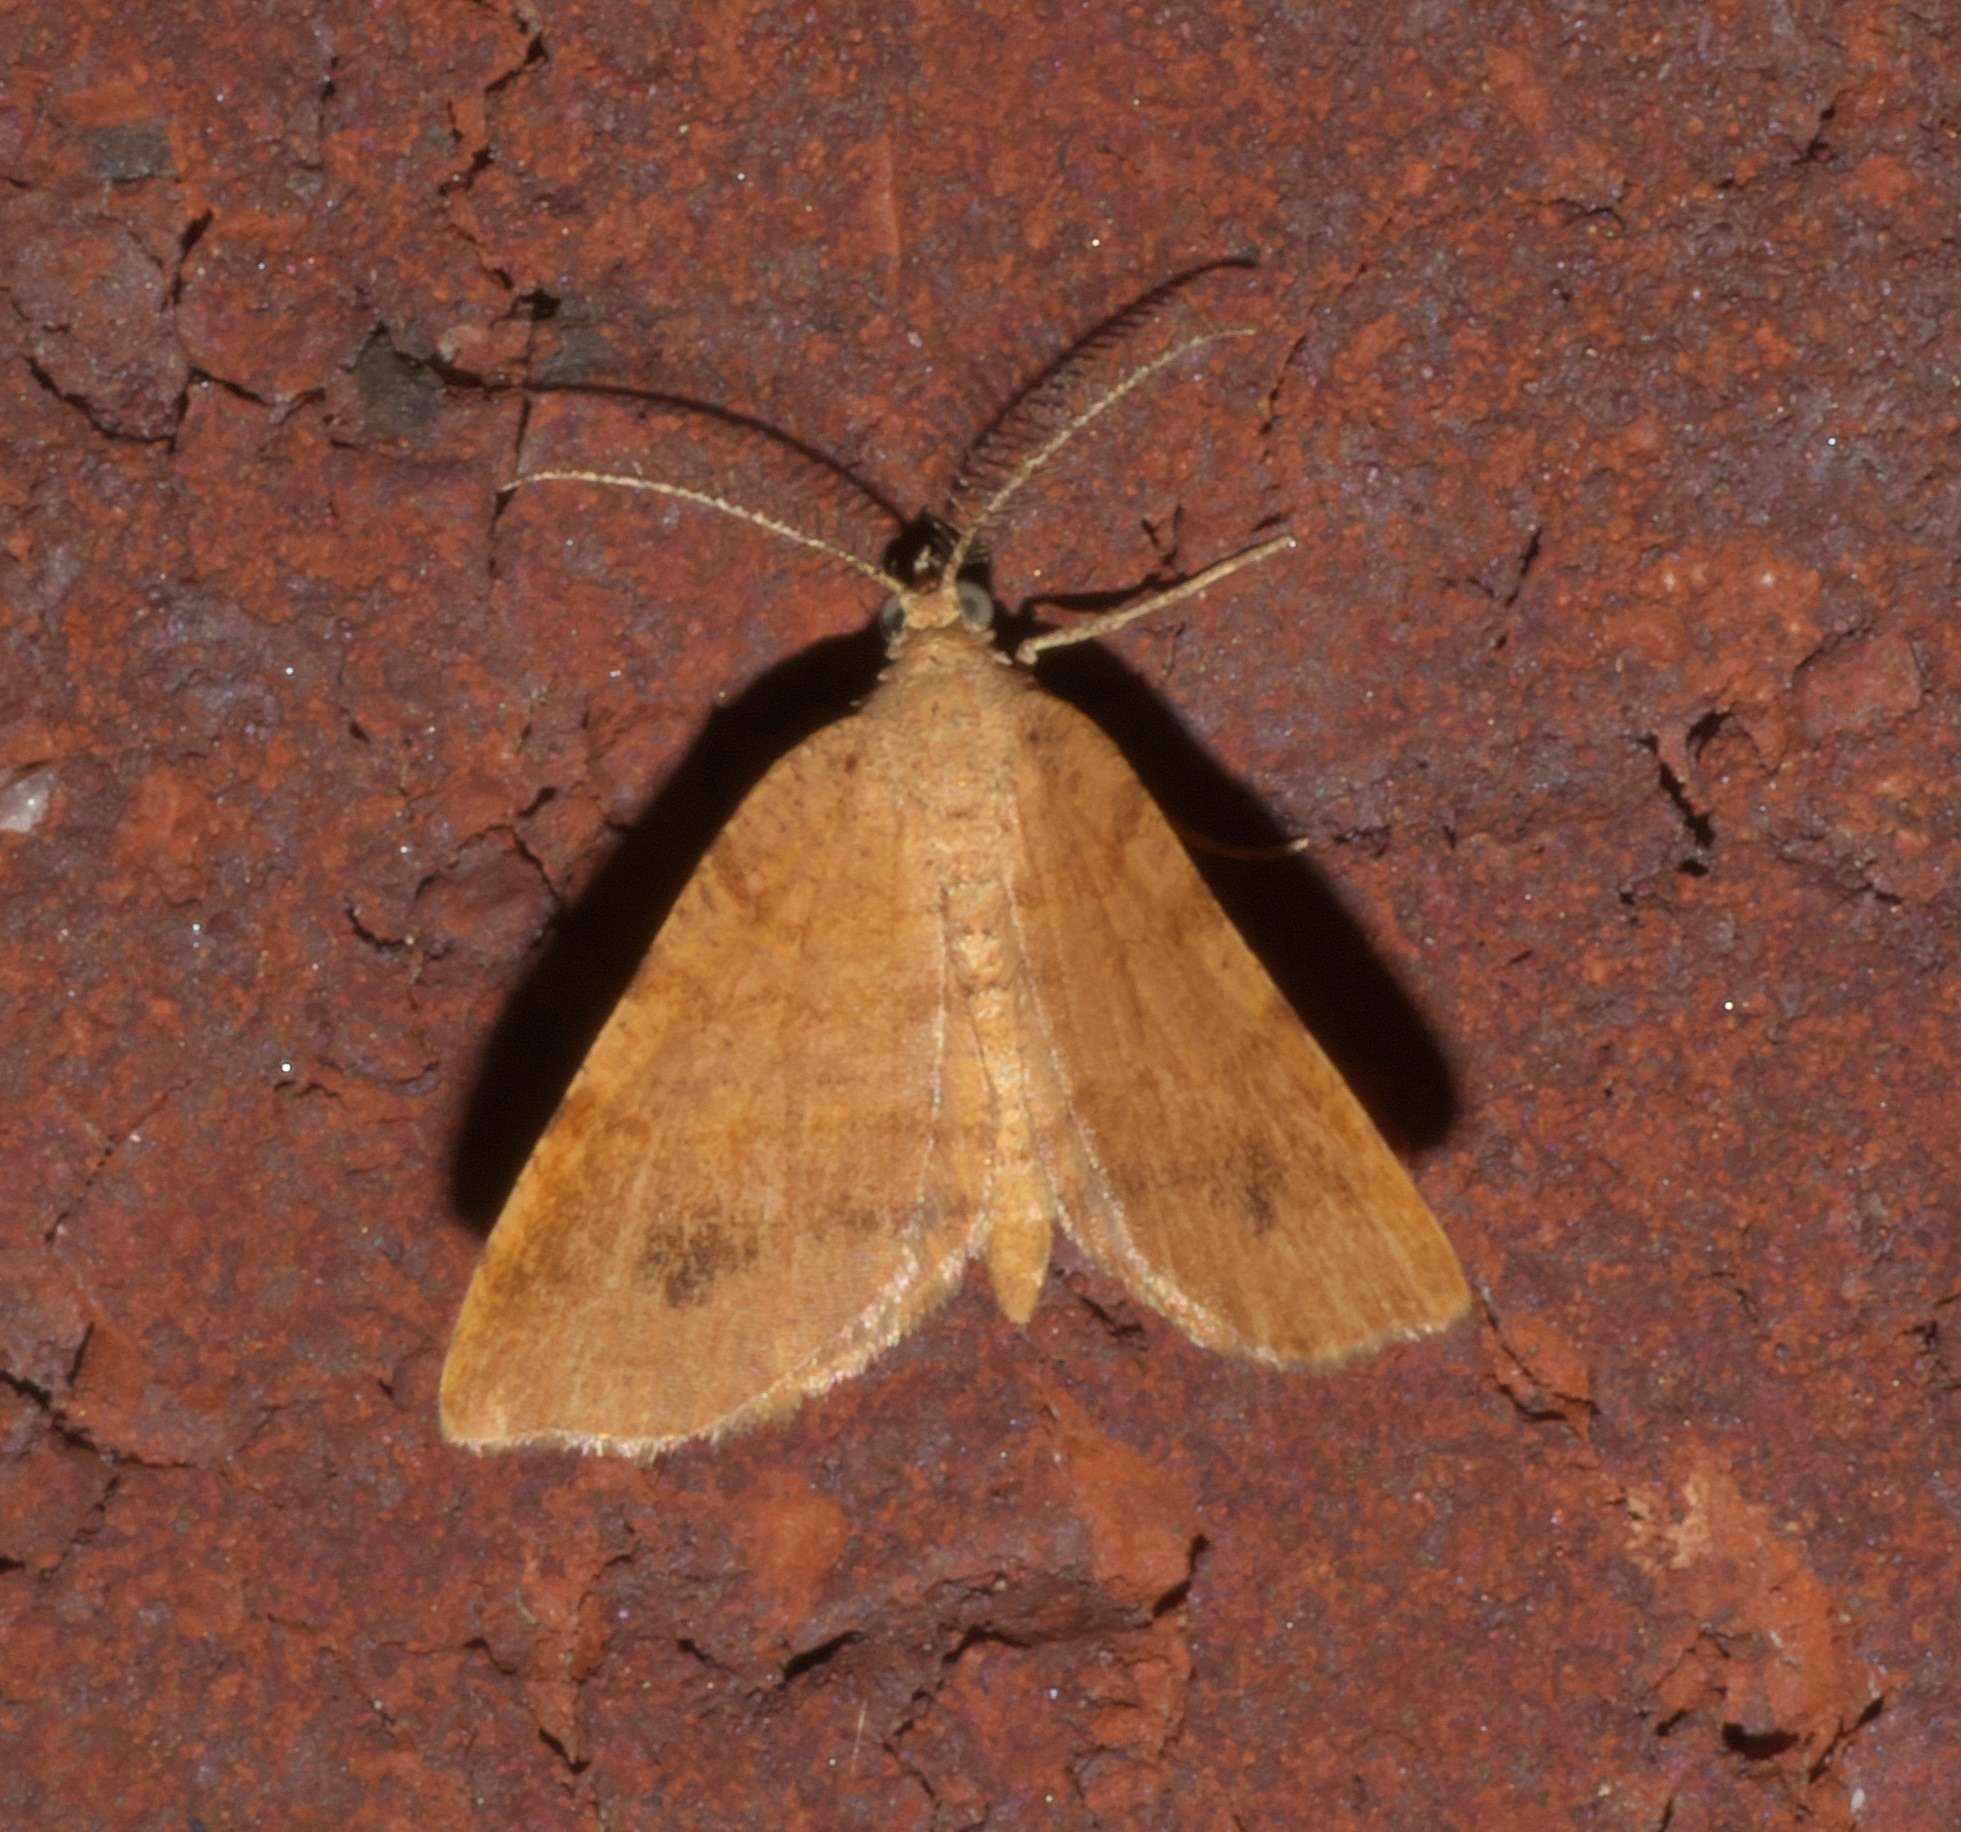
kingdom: Animalia
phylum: Arthropoda
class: Insecta
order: Lepidoptera
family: Geometridae
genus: Mellilla
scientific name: Mellilla xanthometata
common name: Orange wing moth
